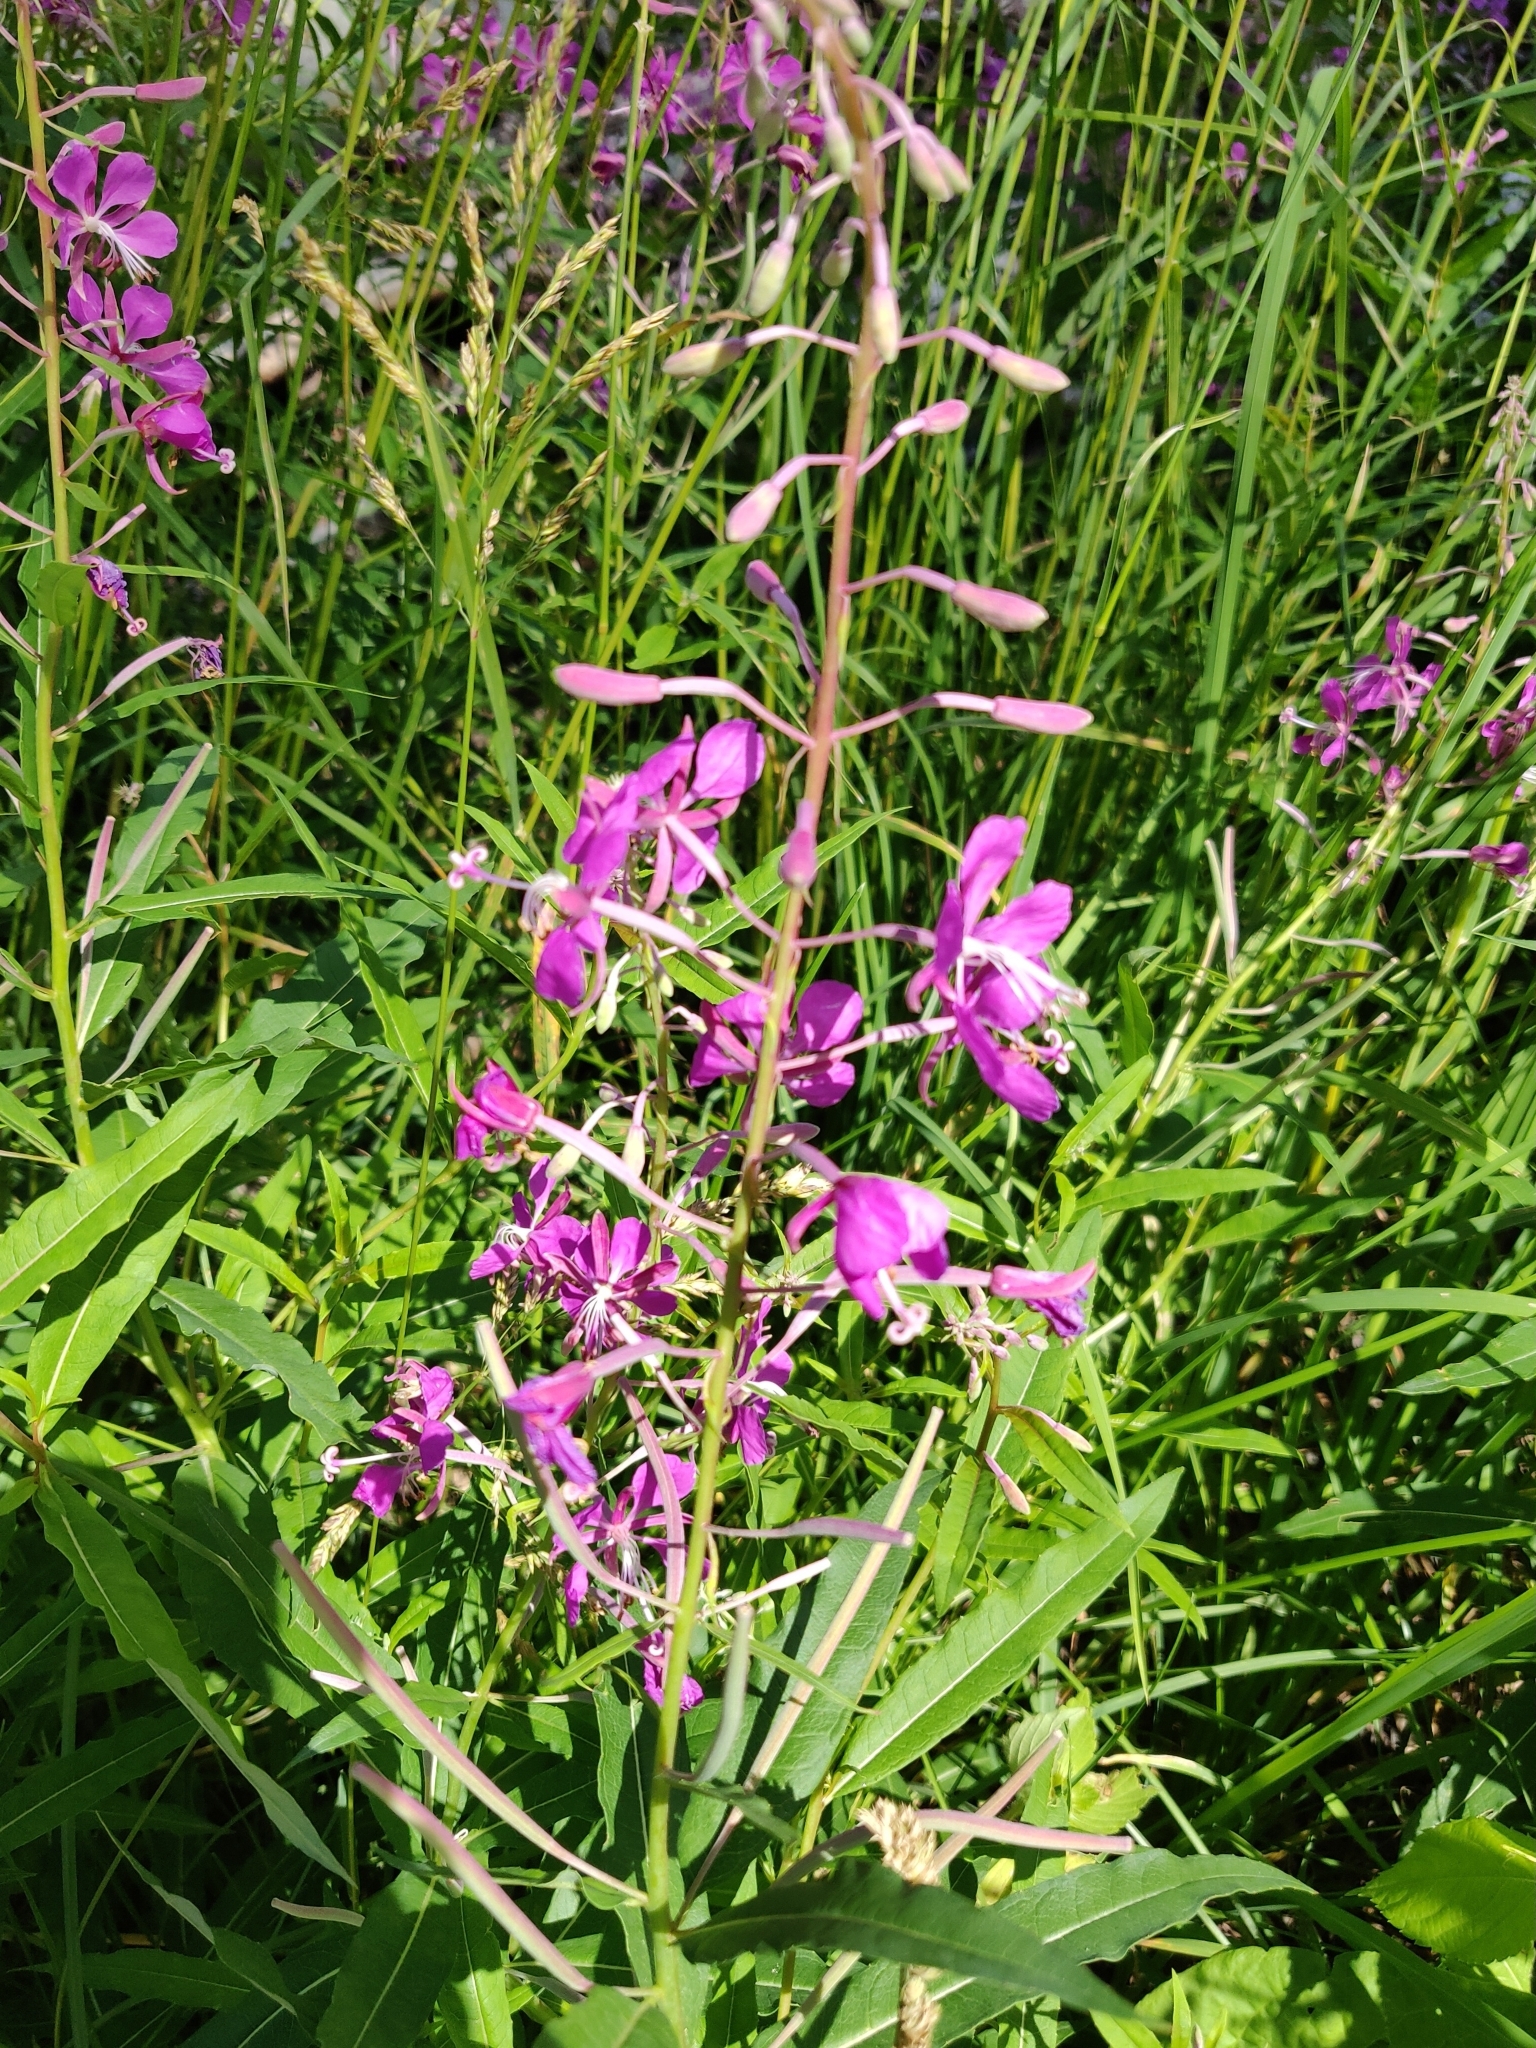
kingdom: Plantae
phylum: Tracheophyta
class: Magnoliopsida
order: Myrtales
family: Onagraceae
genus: Chamaenerion
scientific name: Chamaenerion angustifolium
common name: Fireweed
